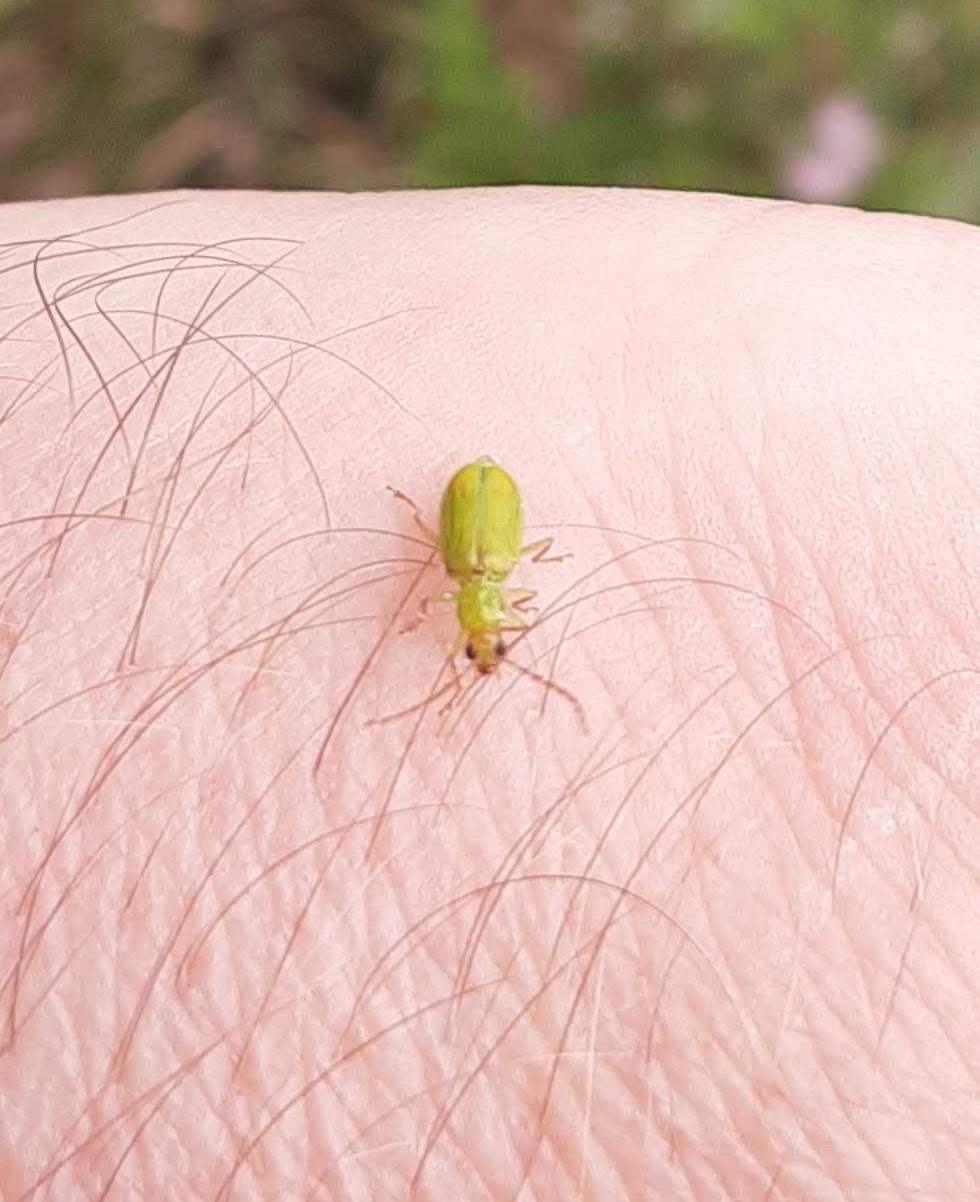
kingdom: Animalia
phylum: Arthropoda
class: Insecta
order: Coleoptera
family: Chrysomelidae
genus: Diabrotica
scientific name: Diabrotica barberi
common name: Northern corn rootworm
